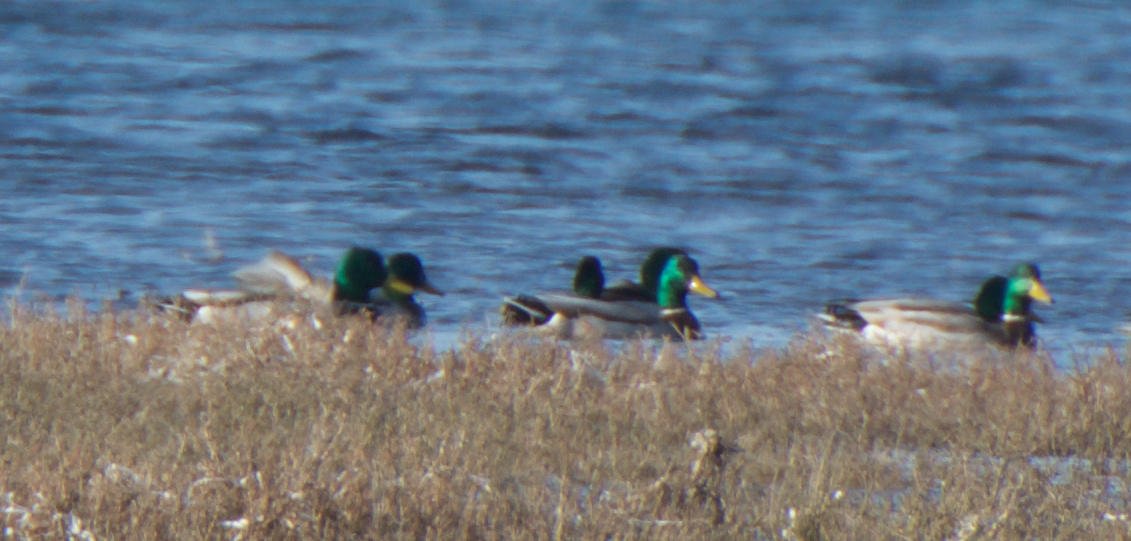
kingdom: Animalia
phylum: Chordata
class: Aves
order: Anseriformes
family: Anatidae
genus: Anas
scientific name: Anas platyrhynchos
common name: Mallard
